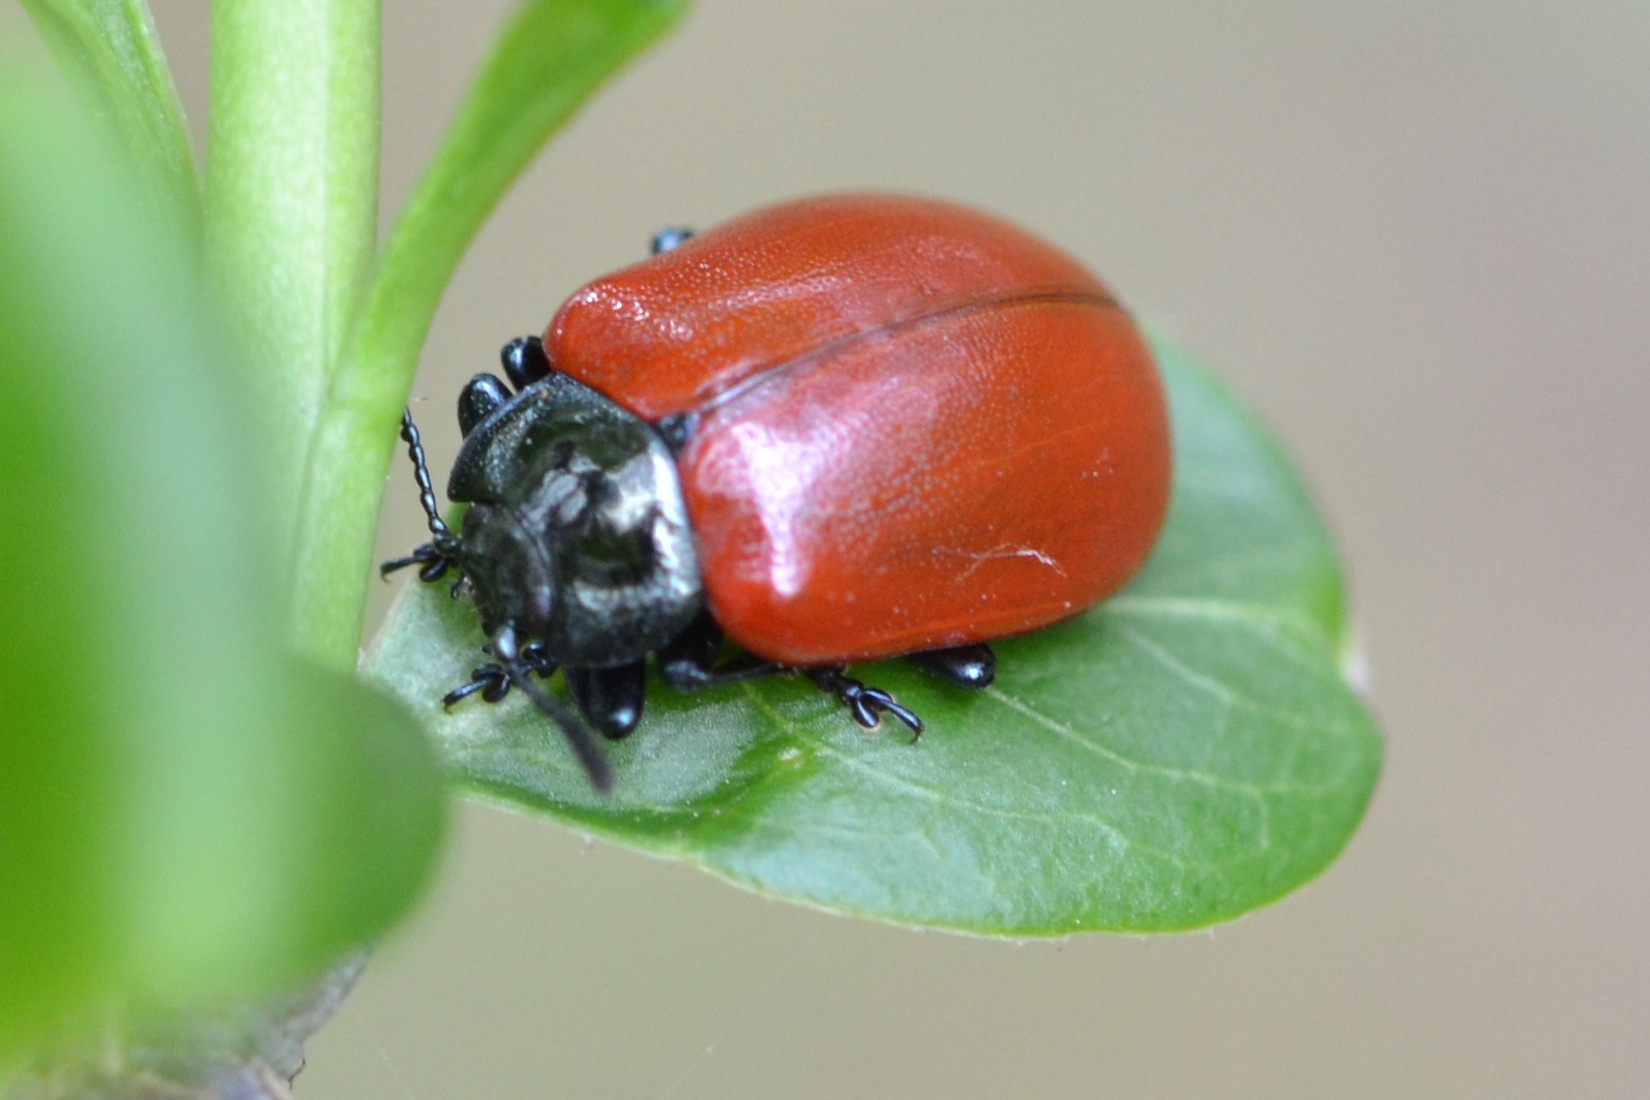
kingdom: Animalia
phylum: Arthropoda
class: Insecta
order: Coleoptera
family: Chrysomelidae
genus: Chrysomela
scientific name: Chrysomela populi
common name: Red poplar leaf beetle
